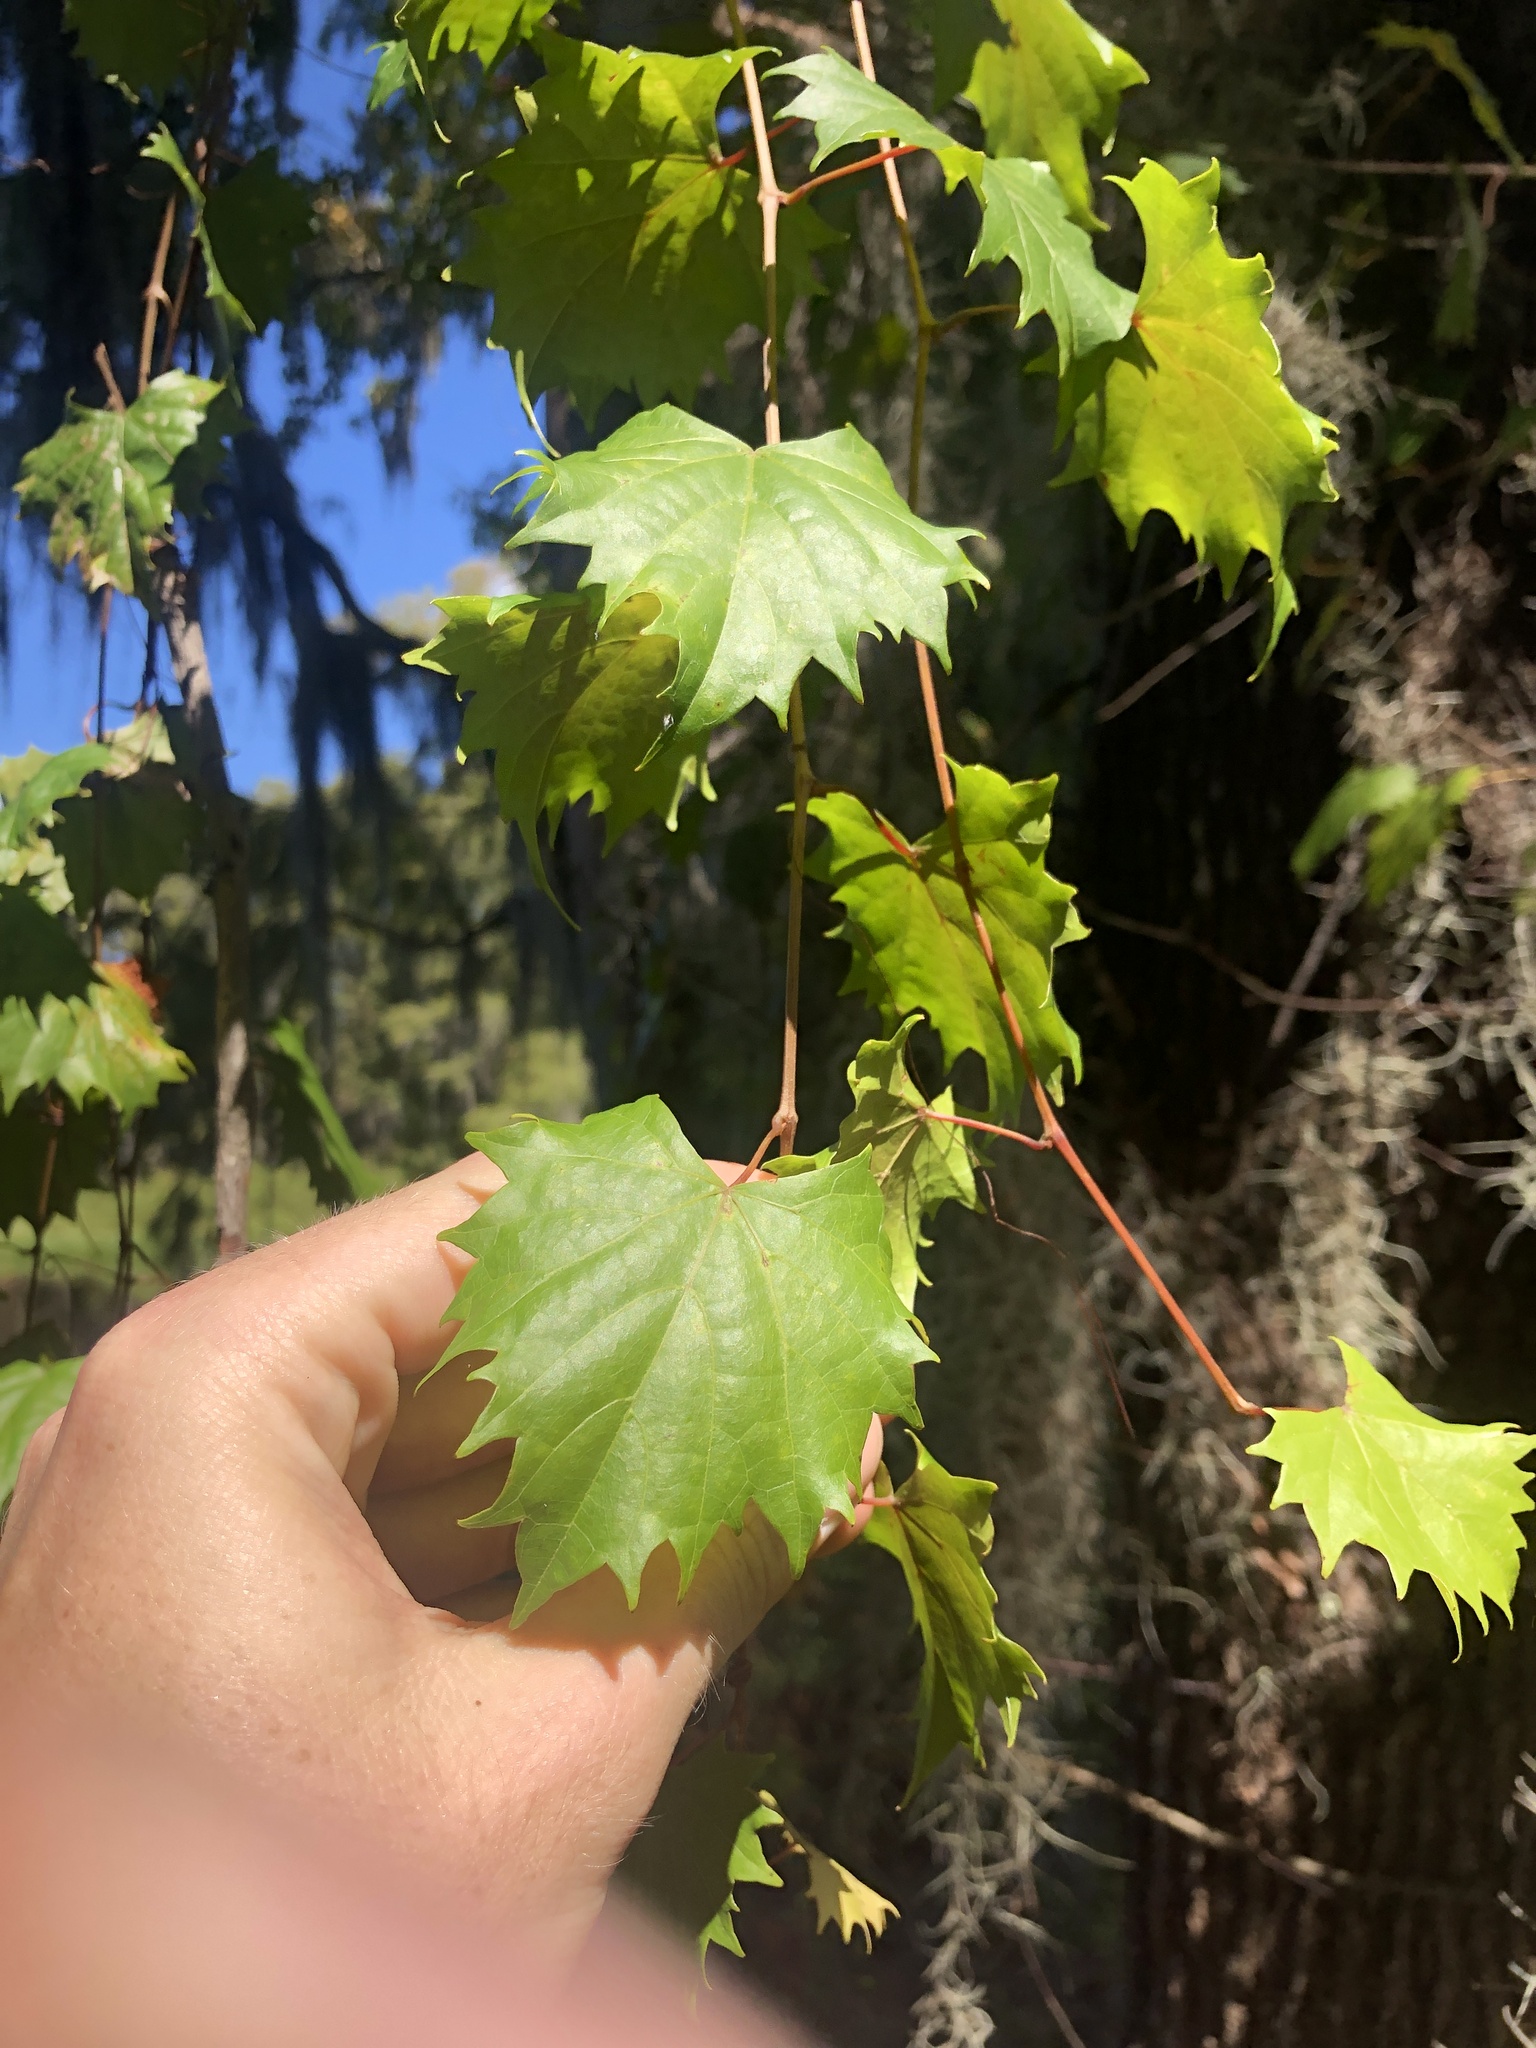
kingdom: Plantae
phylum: Tracheophyta
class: Magnoliopsida
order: Vitales
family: Vitaceae
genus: Vitis
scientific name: Vitis rotundifolia
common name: Muscadine grape
